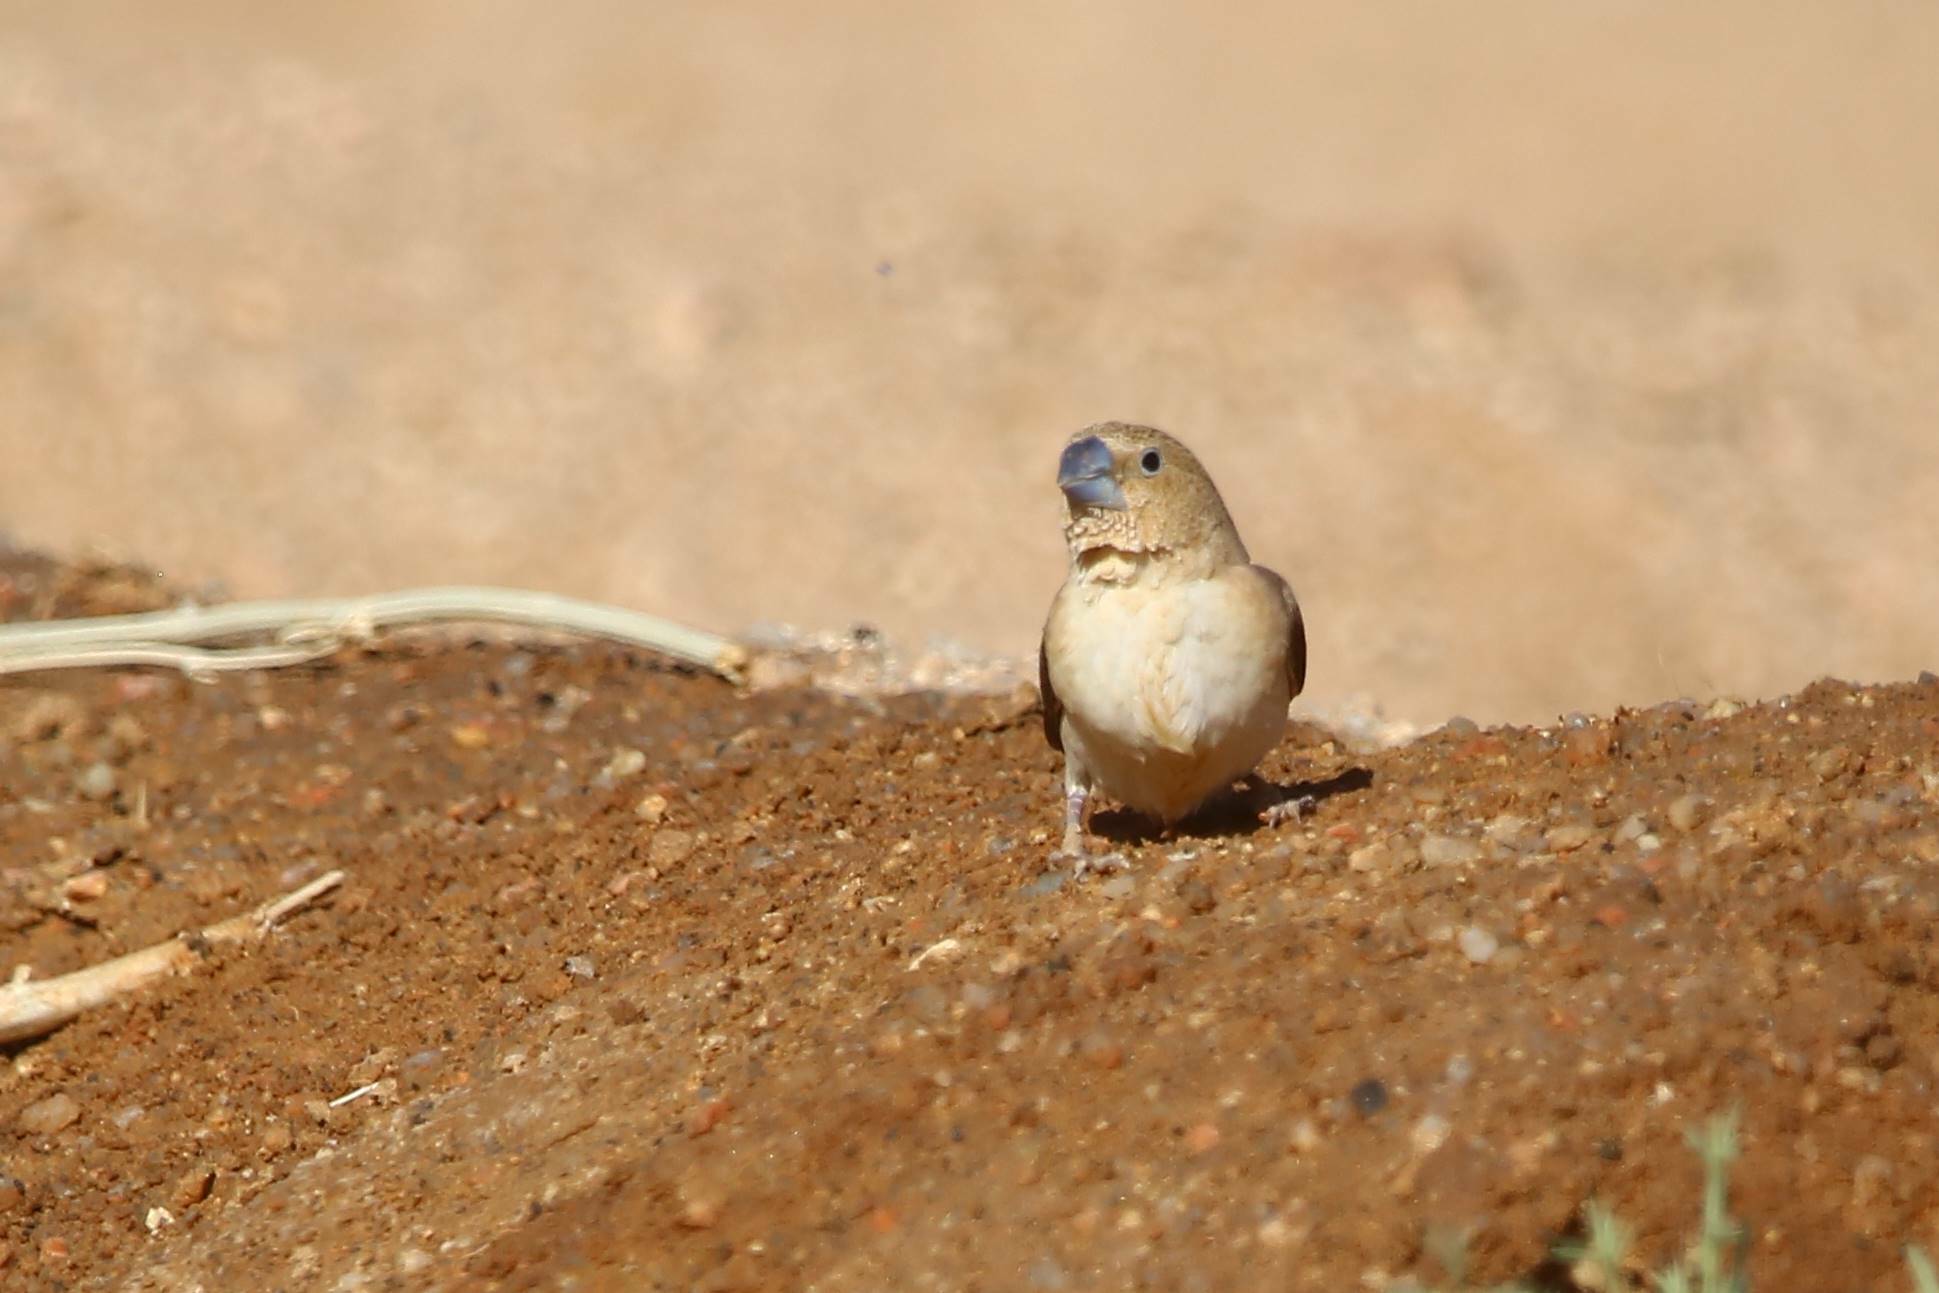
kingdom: Animalia
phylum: Chordata
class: Aves
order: Passeriformes
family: Estrildidae
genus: Euodice
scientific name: Euodice cantans
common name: African silverbill
